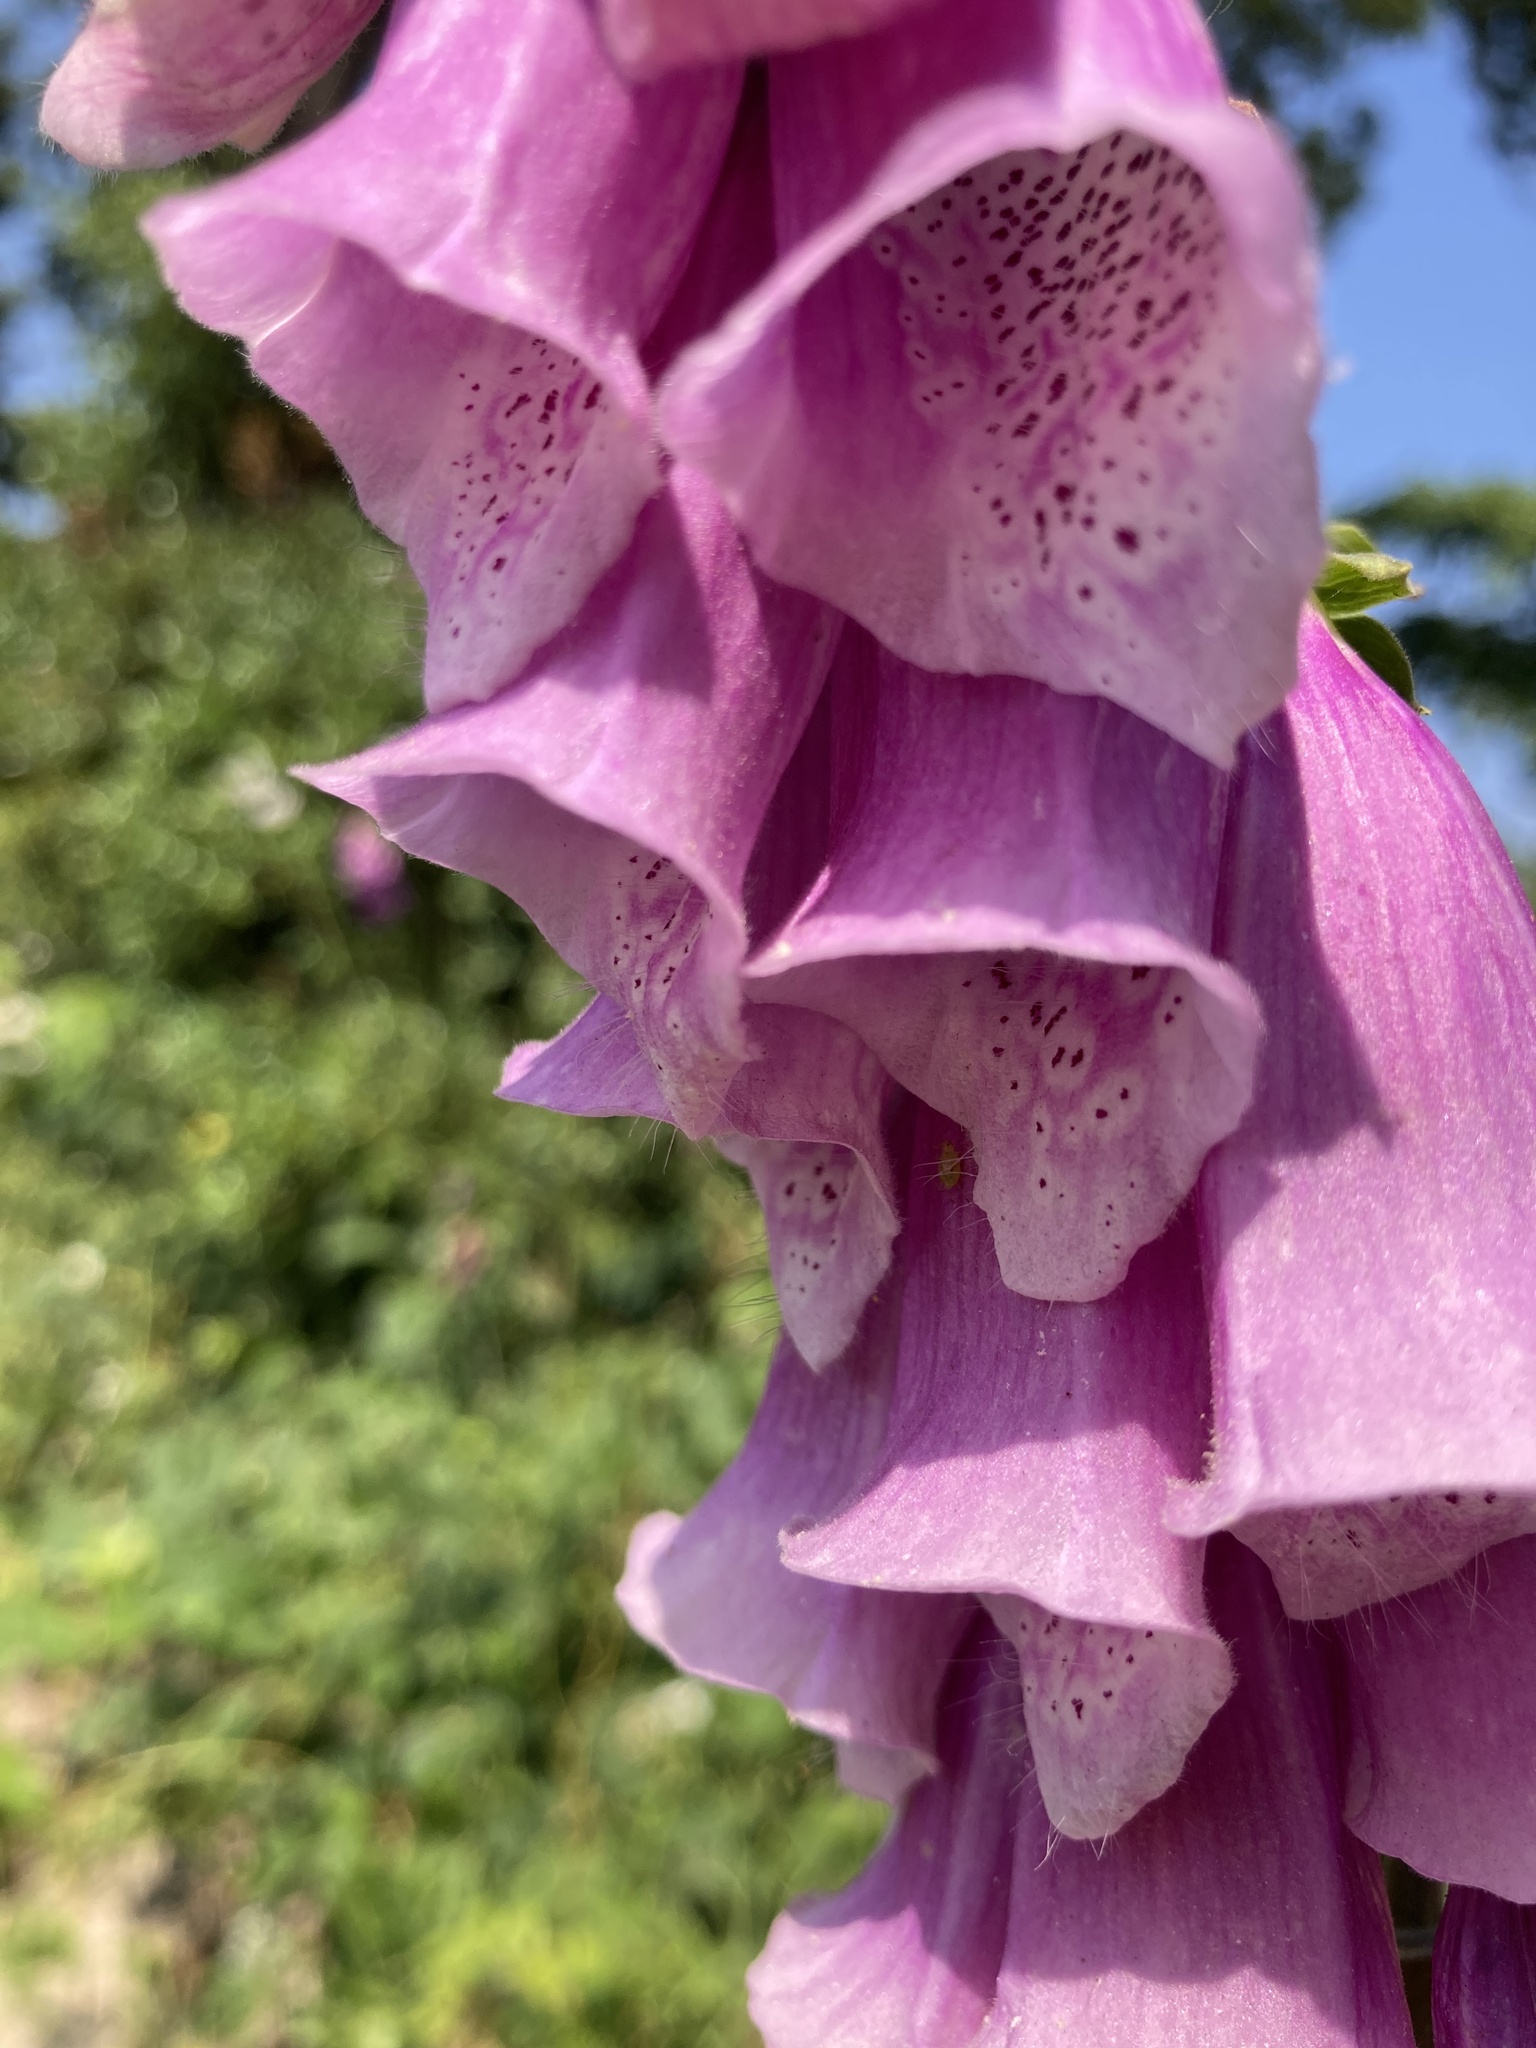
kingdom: Plantae
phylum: Tracheophyta
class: Magnoliopsida
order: Lamiales
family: Plantaginaceae
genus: Digitalis
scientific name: Digitalis purpurea
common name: Foxglove
